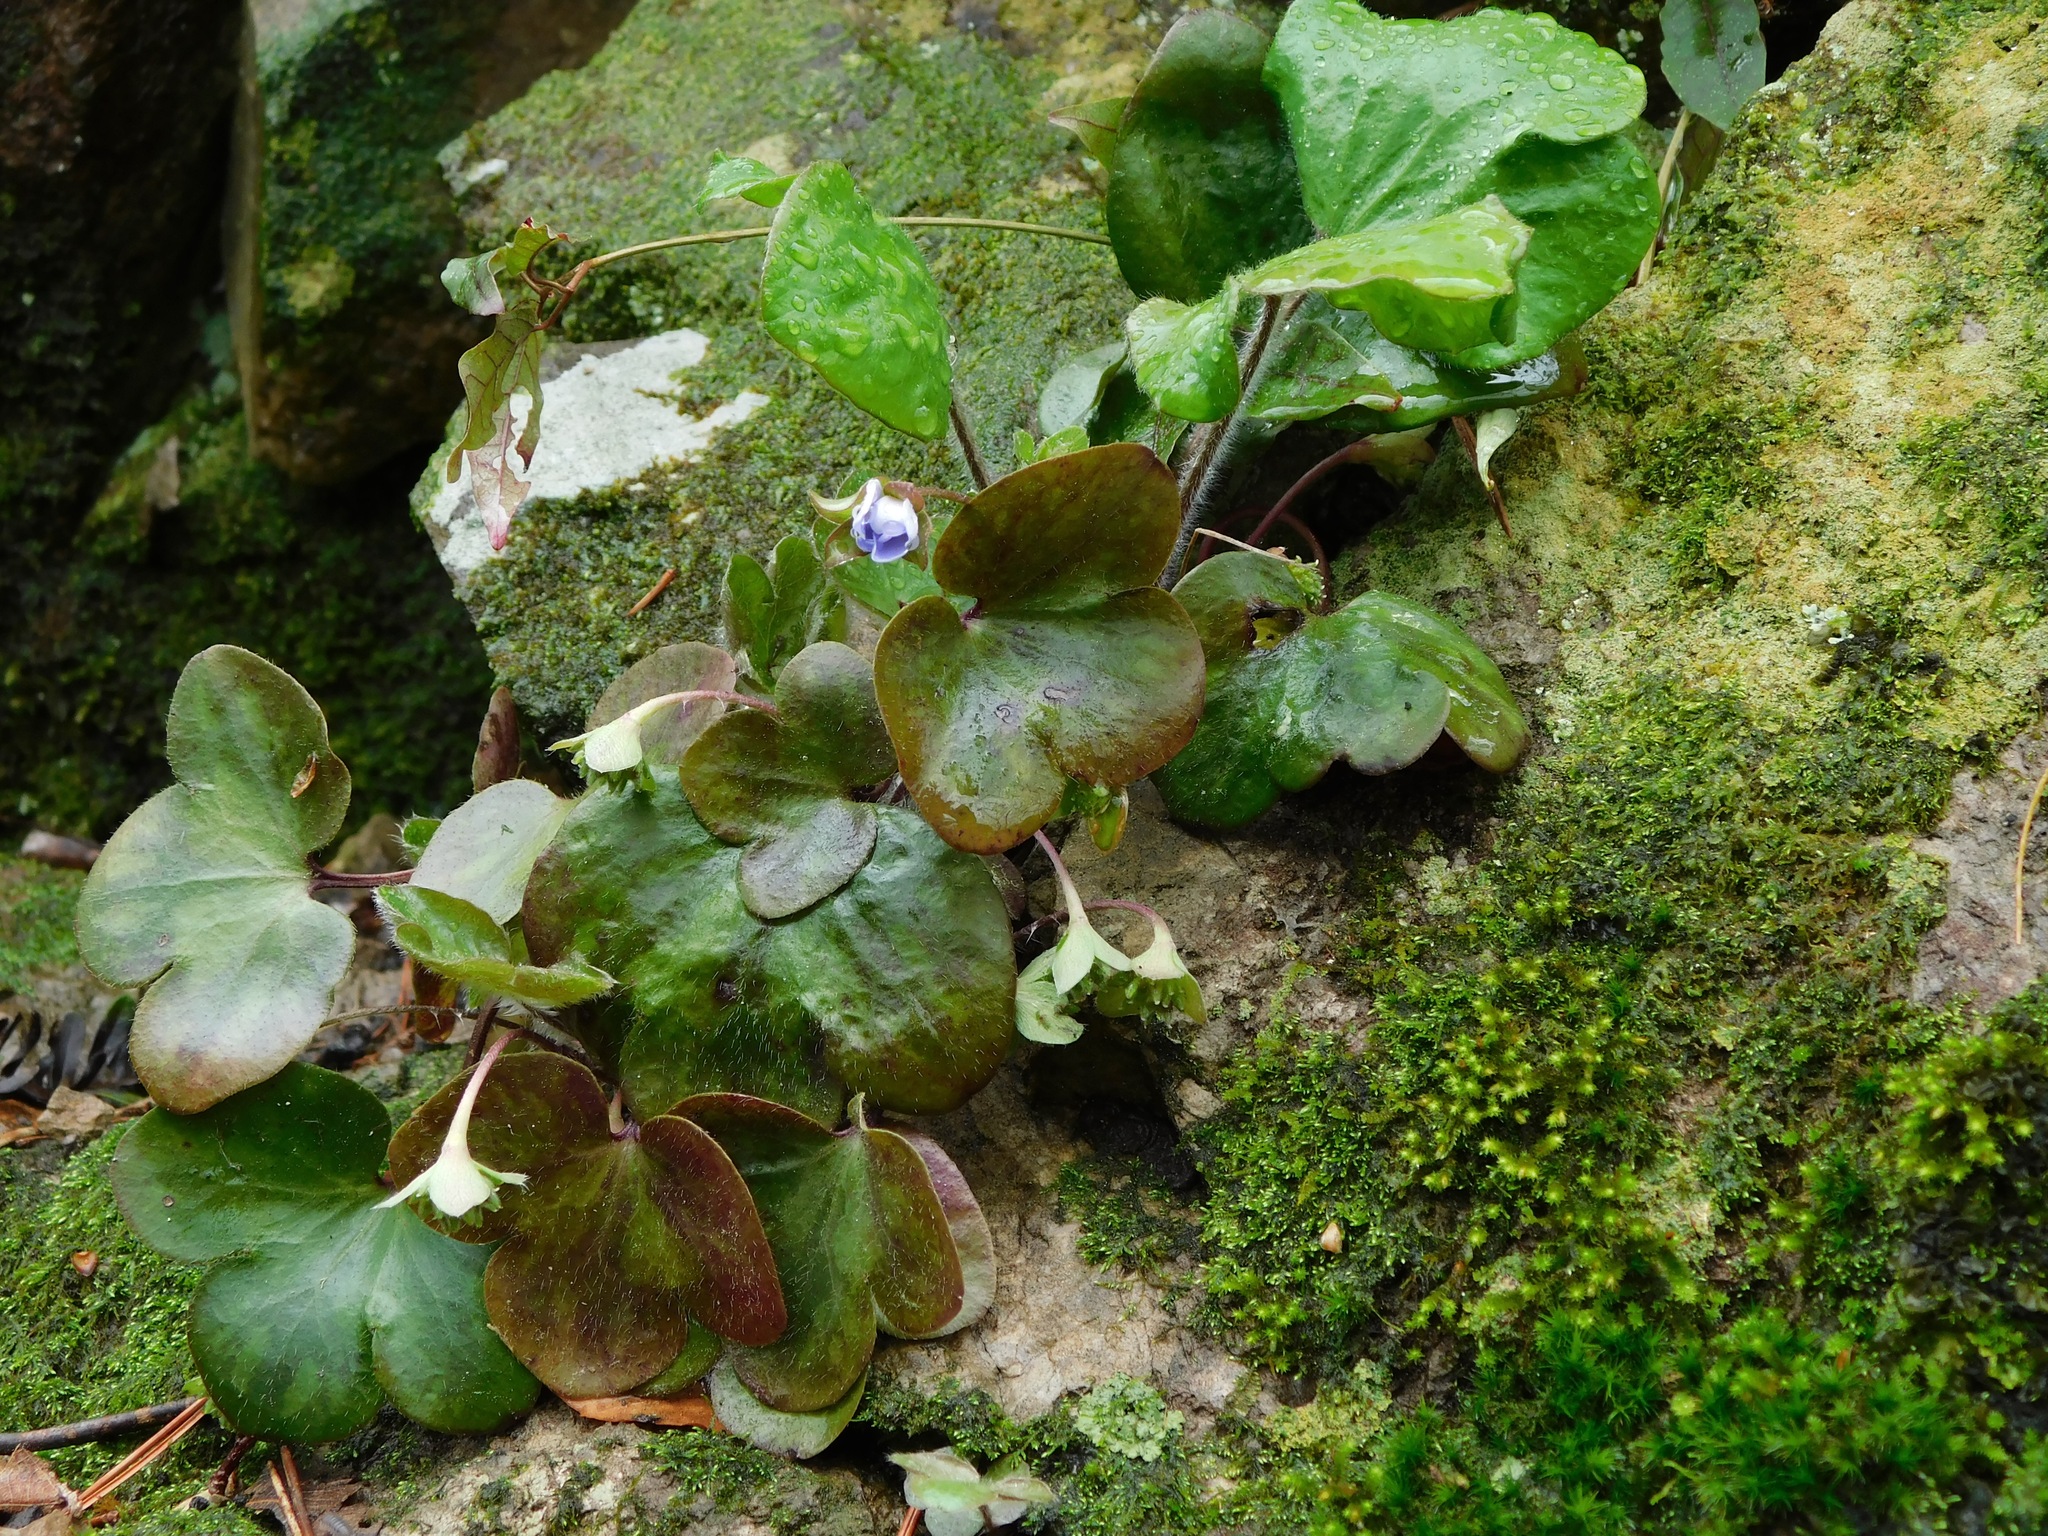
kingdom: Plantae
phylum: Tracheophyta
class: Magnoliopsida
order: Ranunculales
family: Ranunculaceae
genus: Hepatica
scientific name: Hepatica americana
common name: American hepatica
